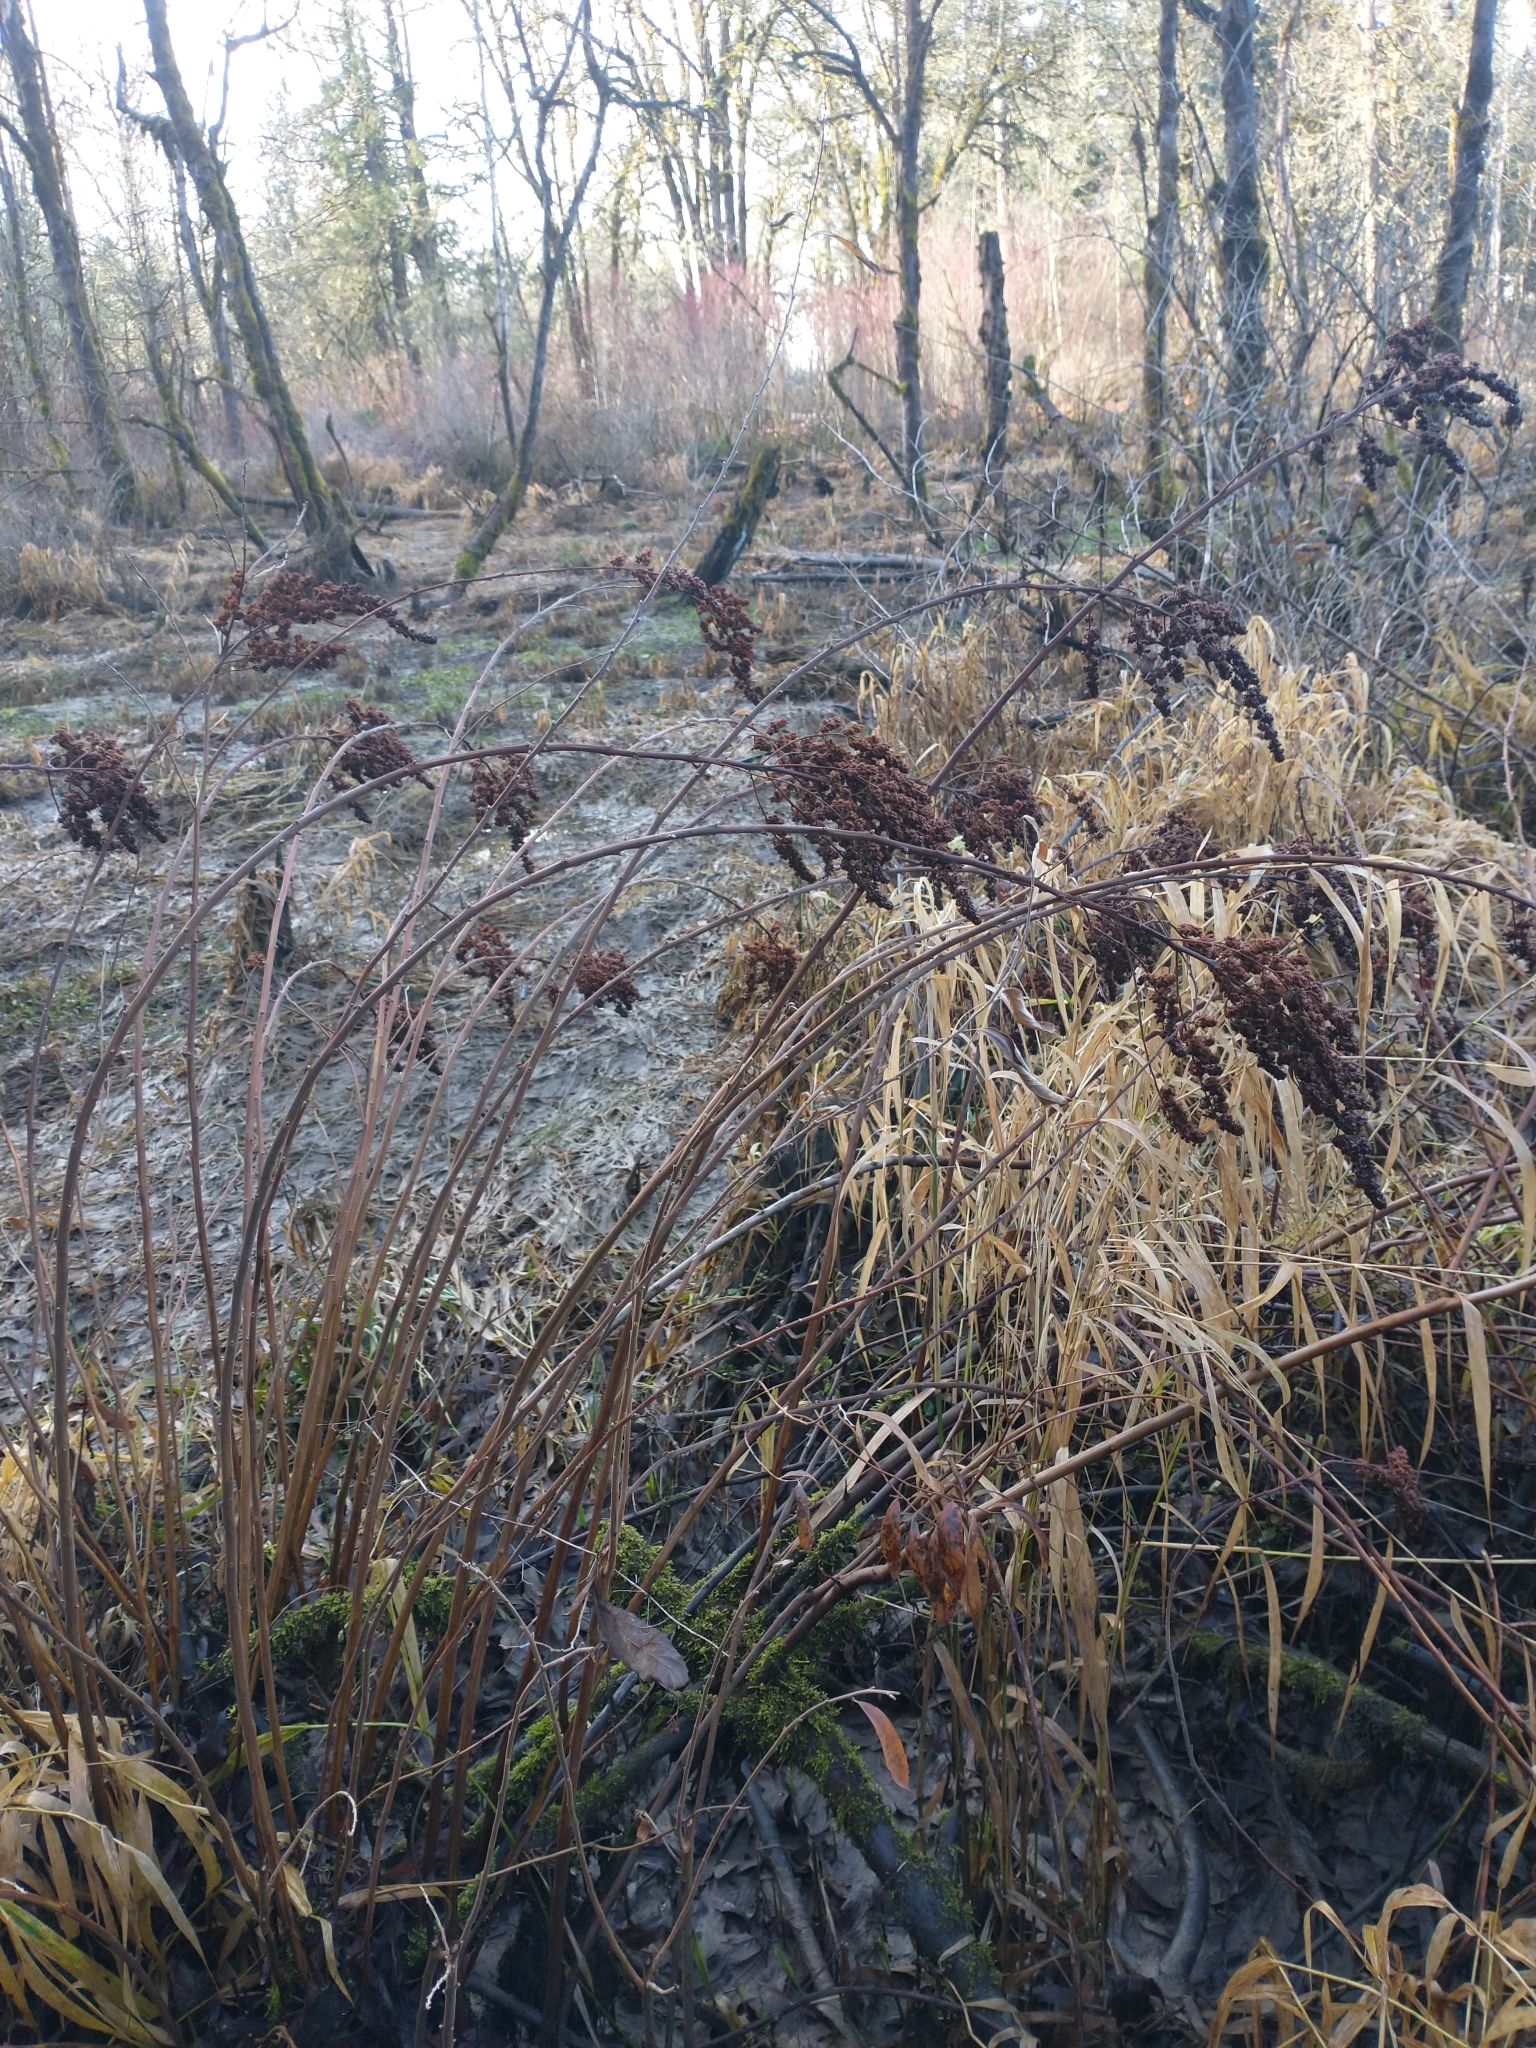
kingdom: Plantae
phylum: Tracheophyta
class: Magnoliopsida
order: Rosales
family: Rosaceae
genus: Spiraea
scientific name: Spiraea douglasii
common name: Steeplebush
